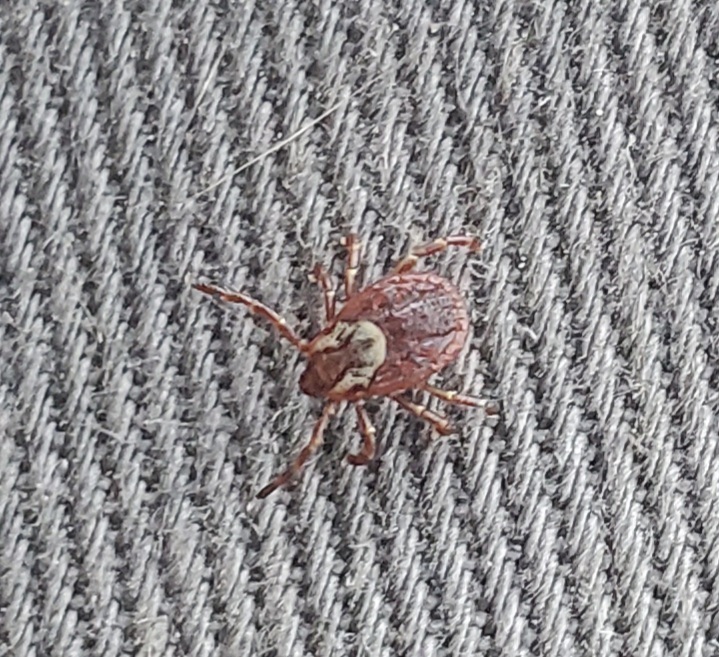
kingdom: Animalia
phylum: Arthropoda
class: Arachnida
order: Ixodida
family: Ixodidae
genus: Dermacentor
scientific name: Dermacentor variabilis
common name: American dog tick
